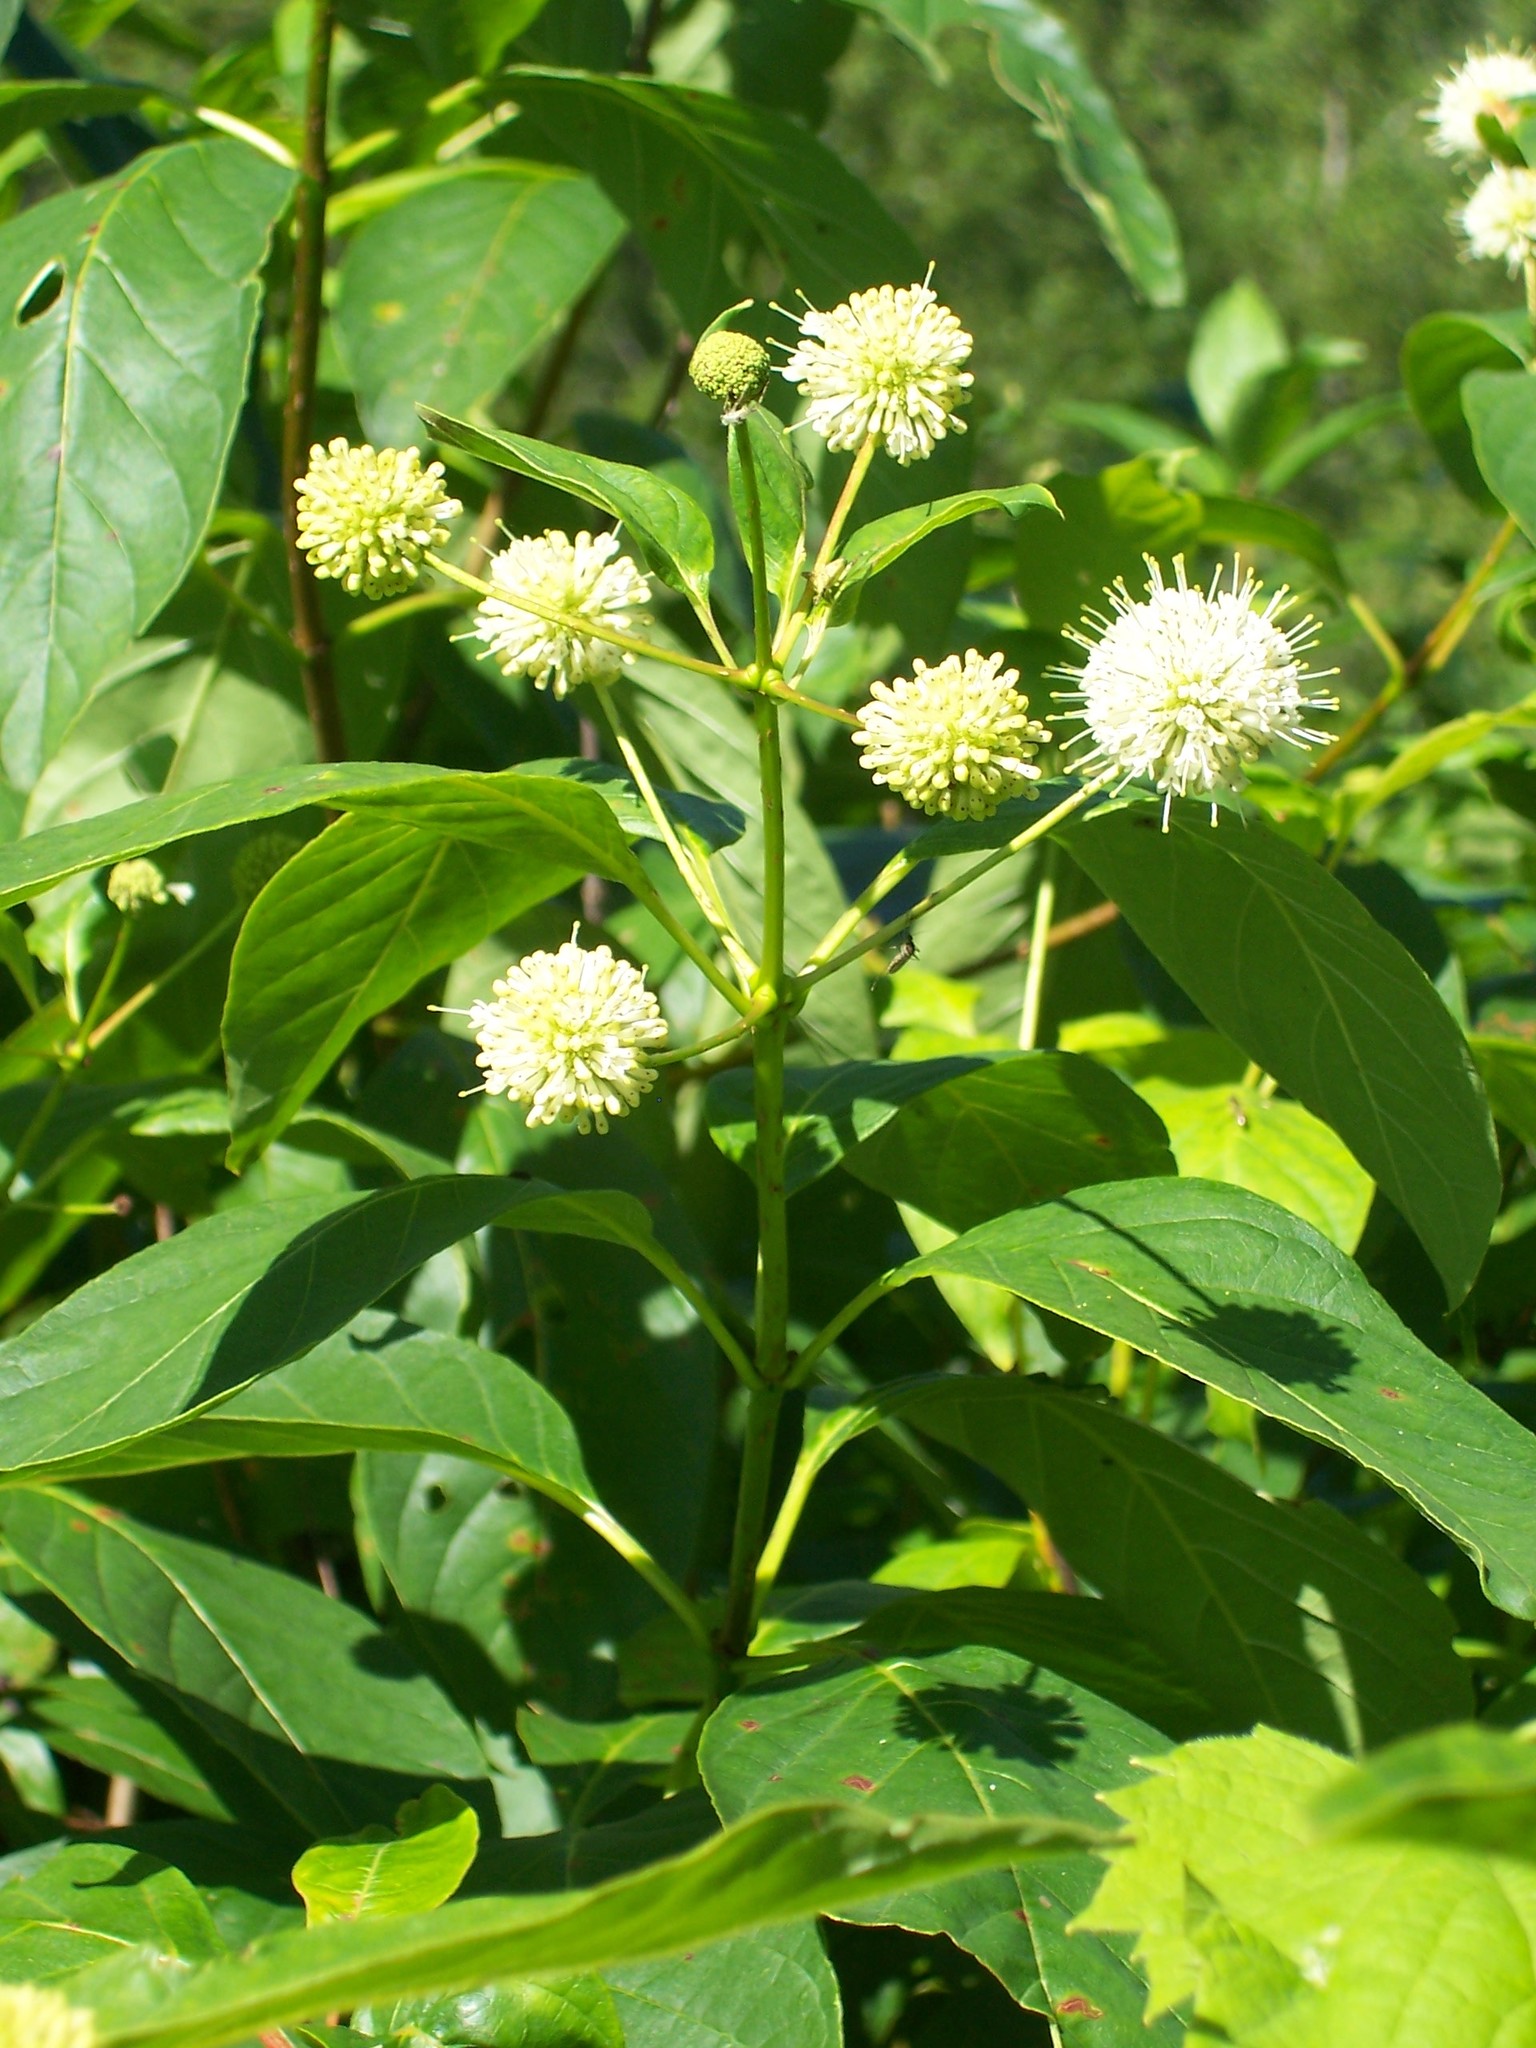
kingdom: Plantae
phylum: Tracheophyta
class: Magnoliopsida
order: Gentianales
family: Rubiaceae
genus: Cephalanthus
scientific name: Cephalanthus occidentalis
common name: Button-willow
